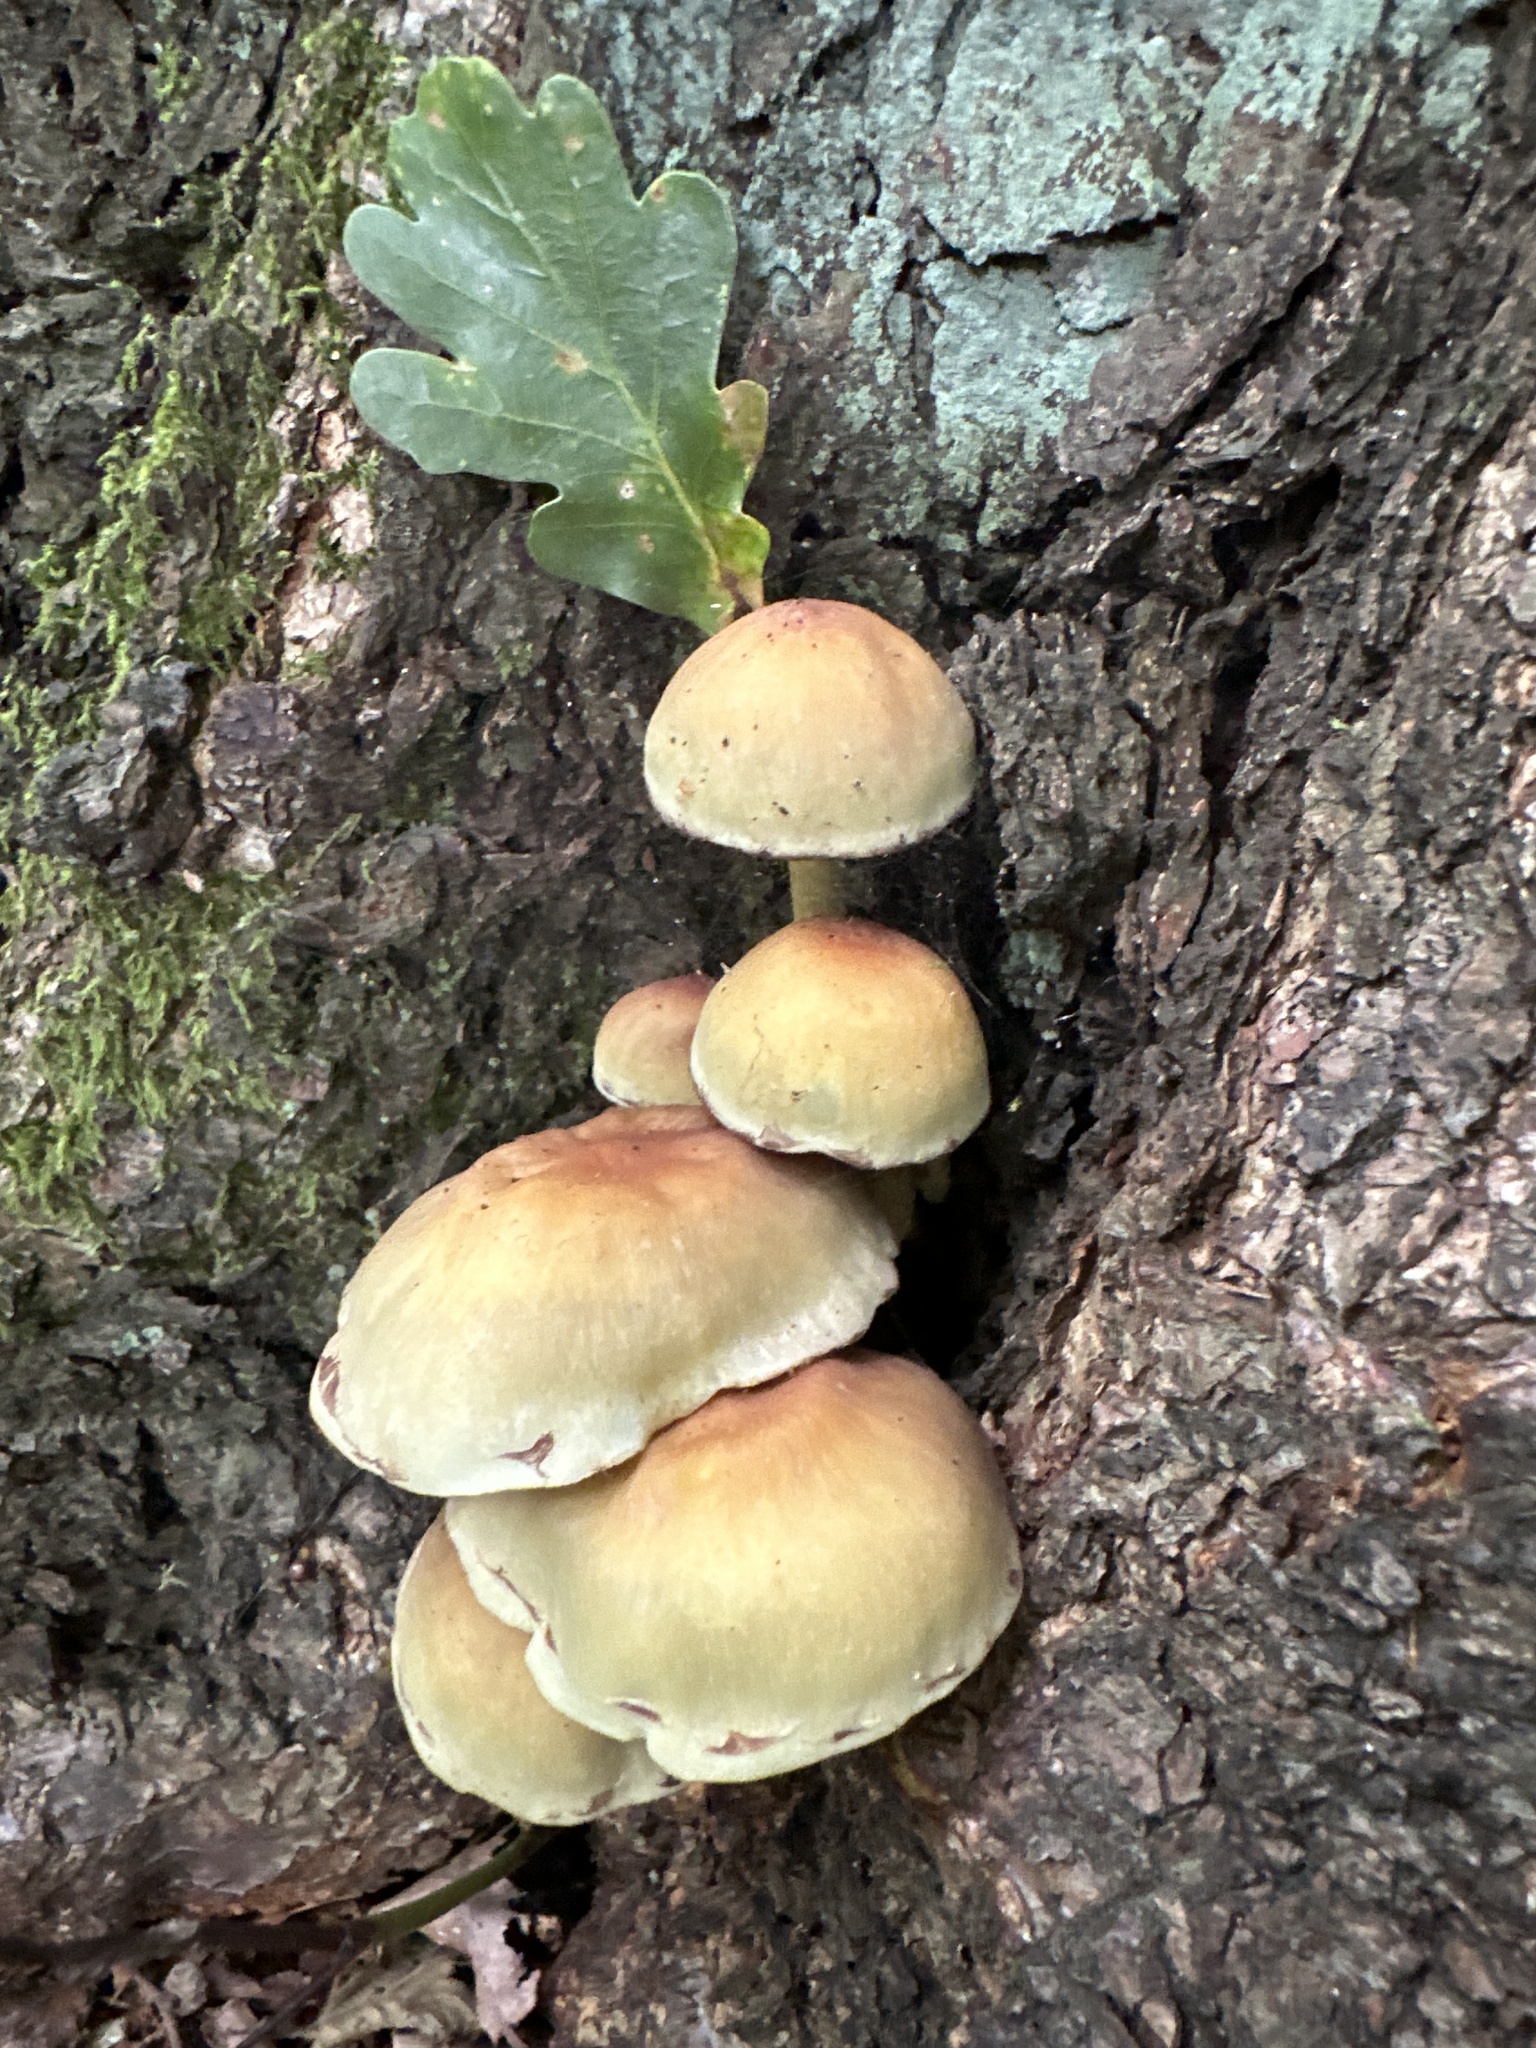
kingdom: Fungi
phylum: Basidiomycota
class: Agaricomycetes
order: Agaricales
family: Strophariaceae
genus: Hypholoma
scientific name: Hypholoma fasciculare
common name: Sulphur tuft
